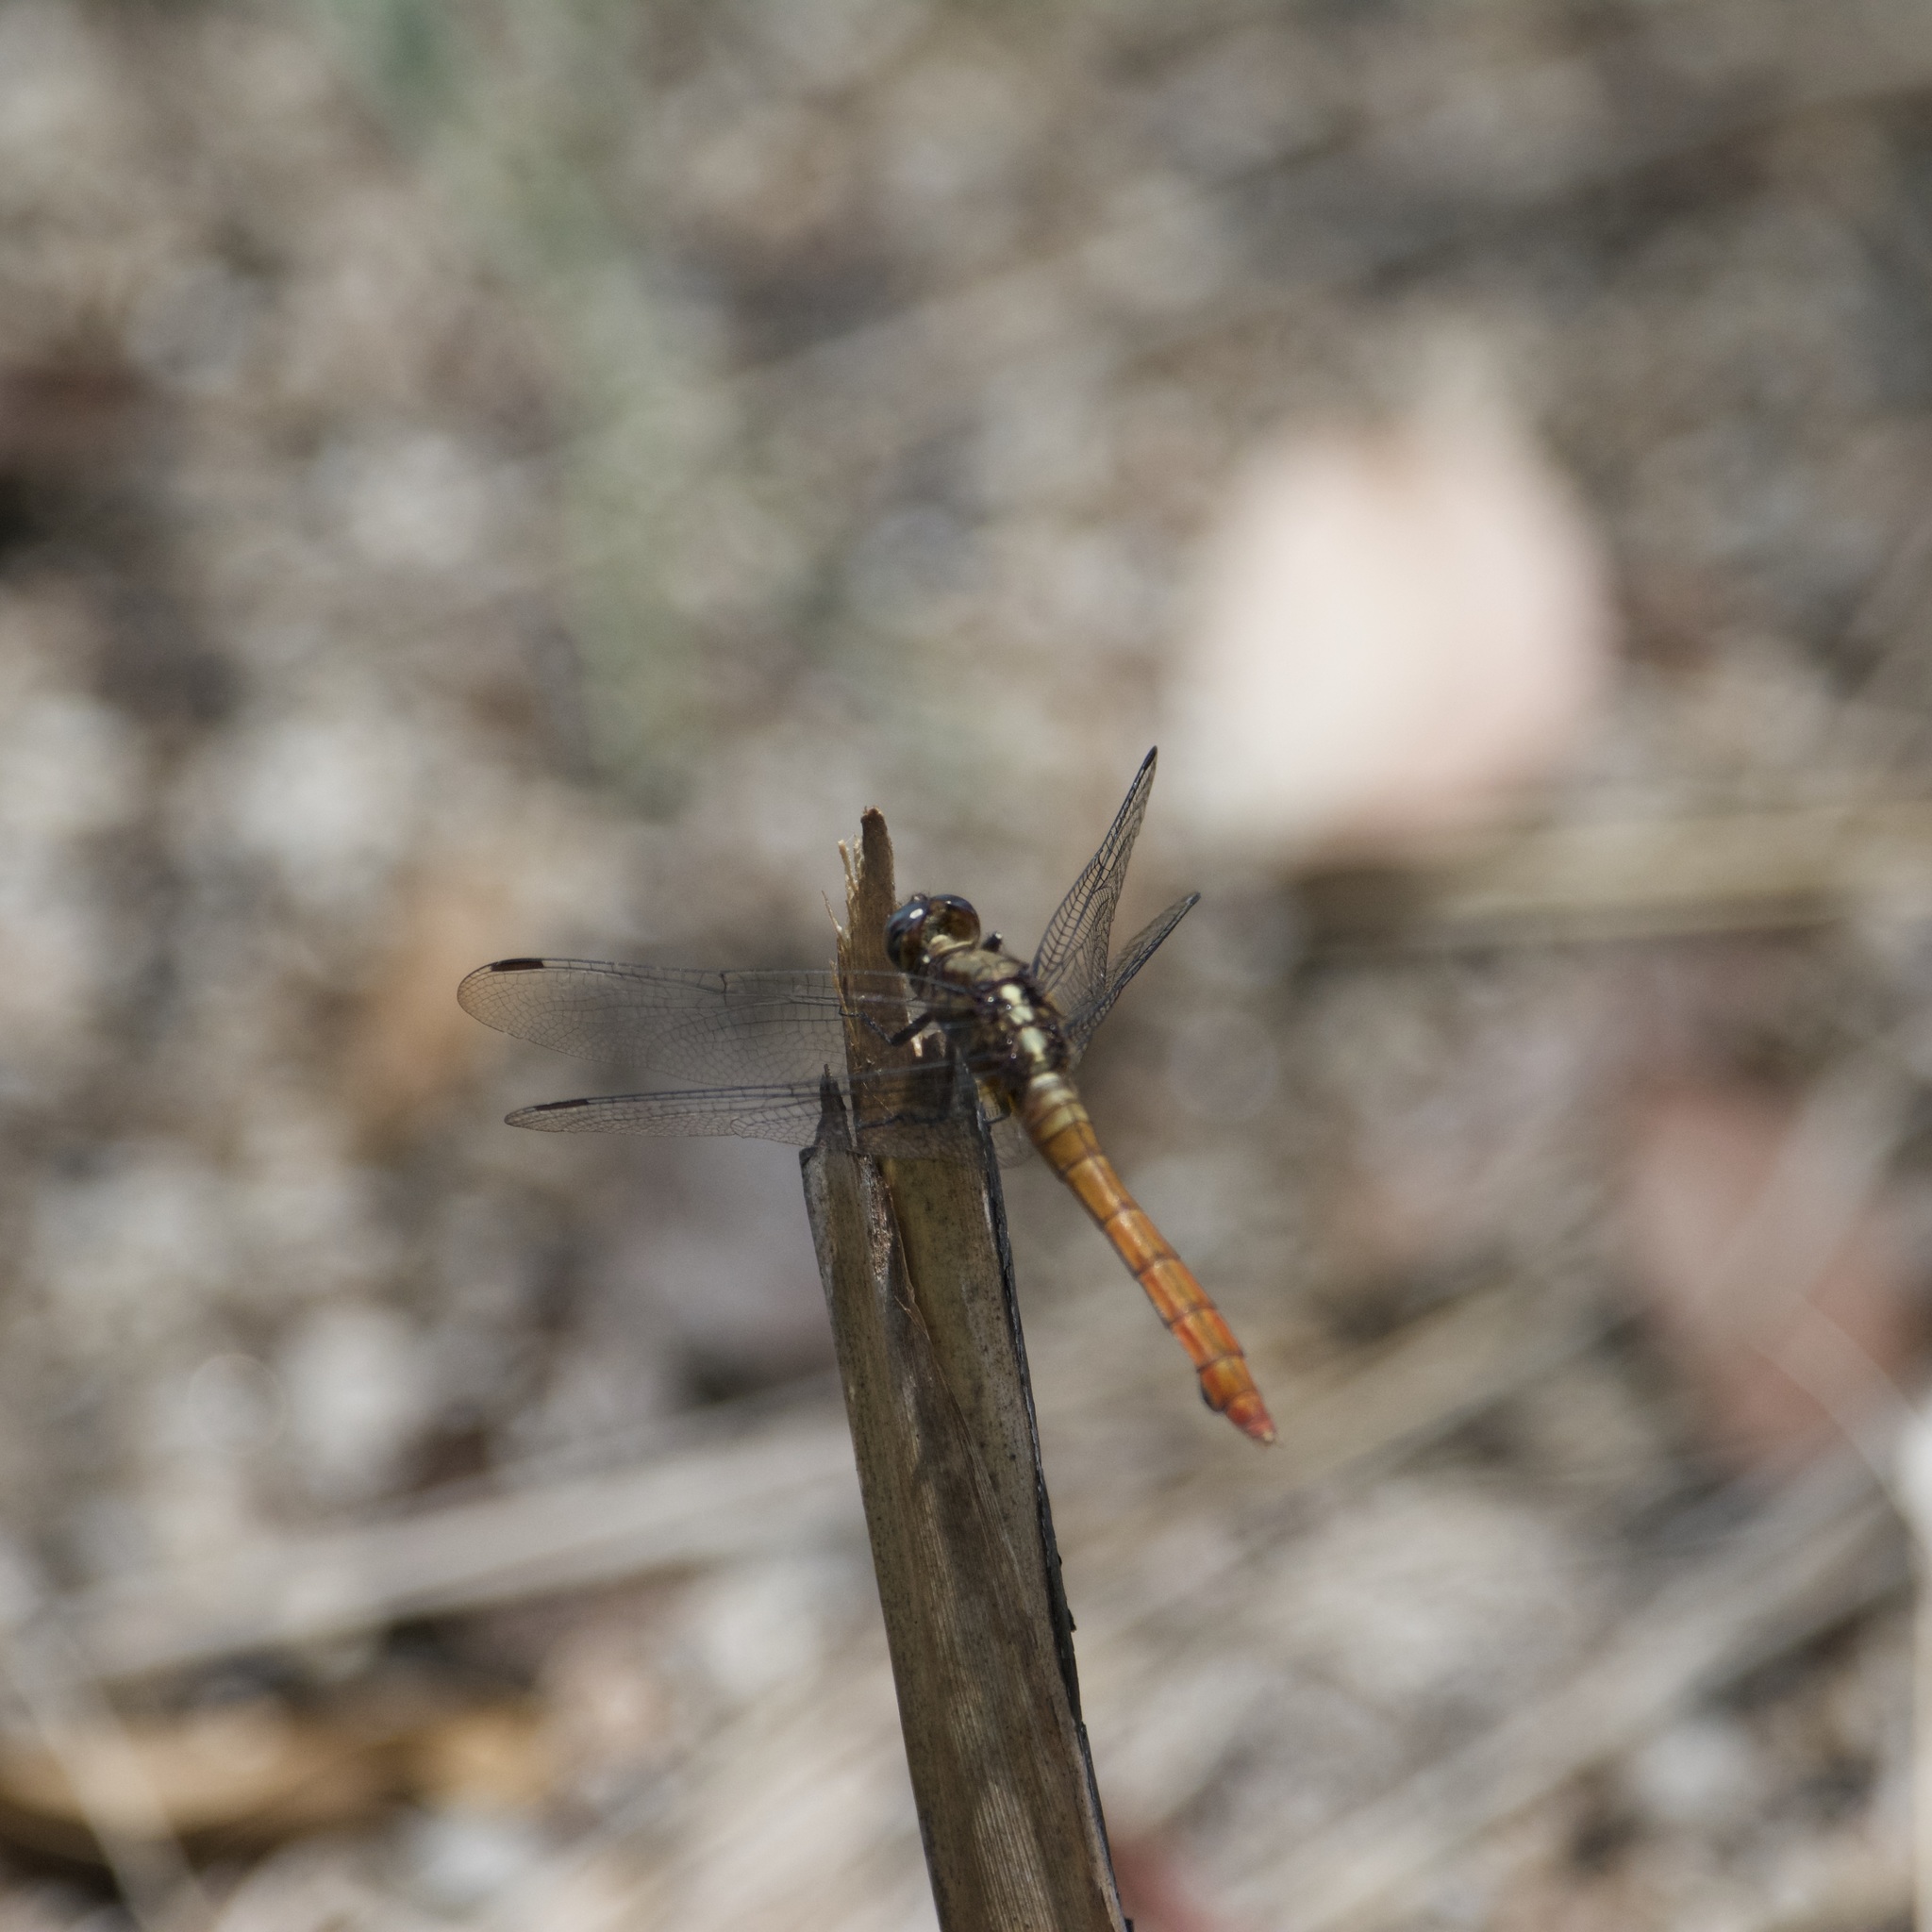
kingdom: Animalia
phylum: Arthropoda
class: Insecta
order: Odonata
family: Libellulidae
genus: Orthetrum
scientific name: Orthetrum villosovittatum
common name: Firery skimmer
